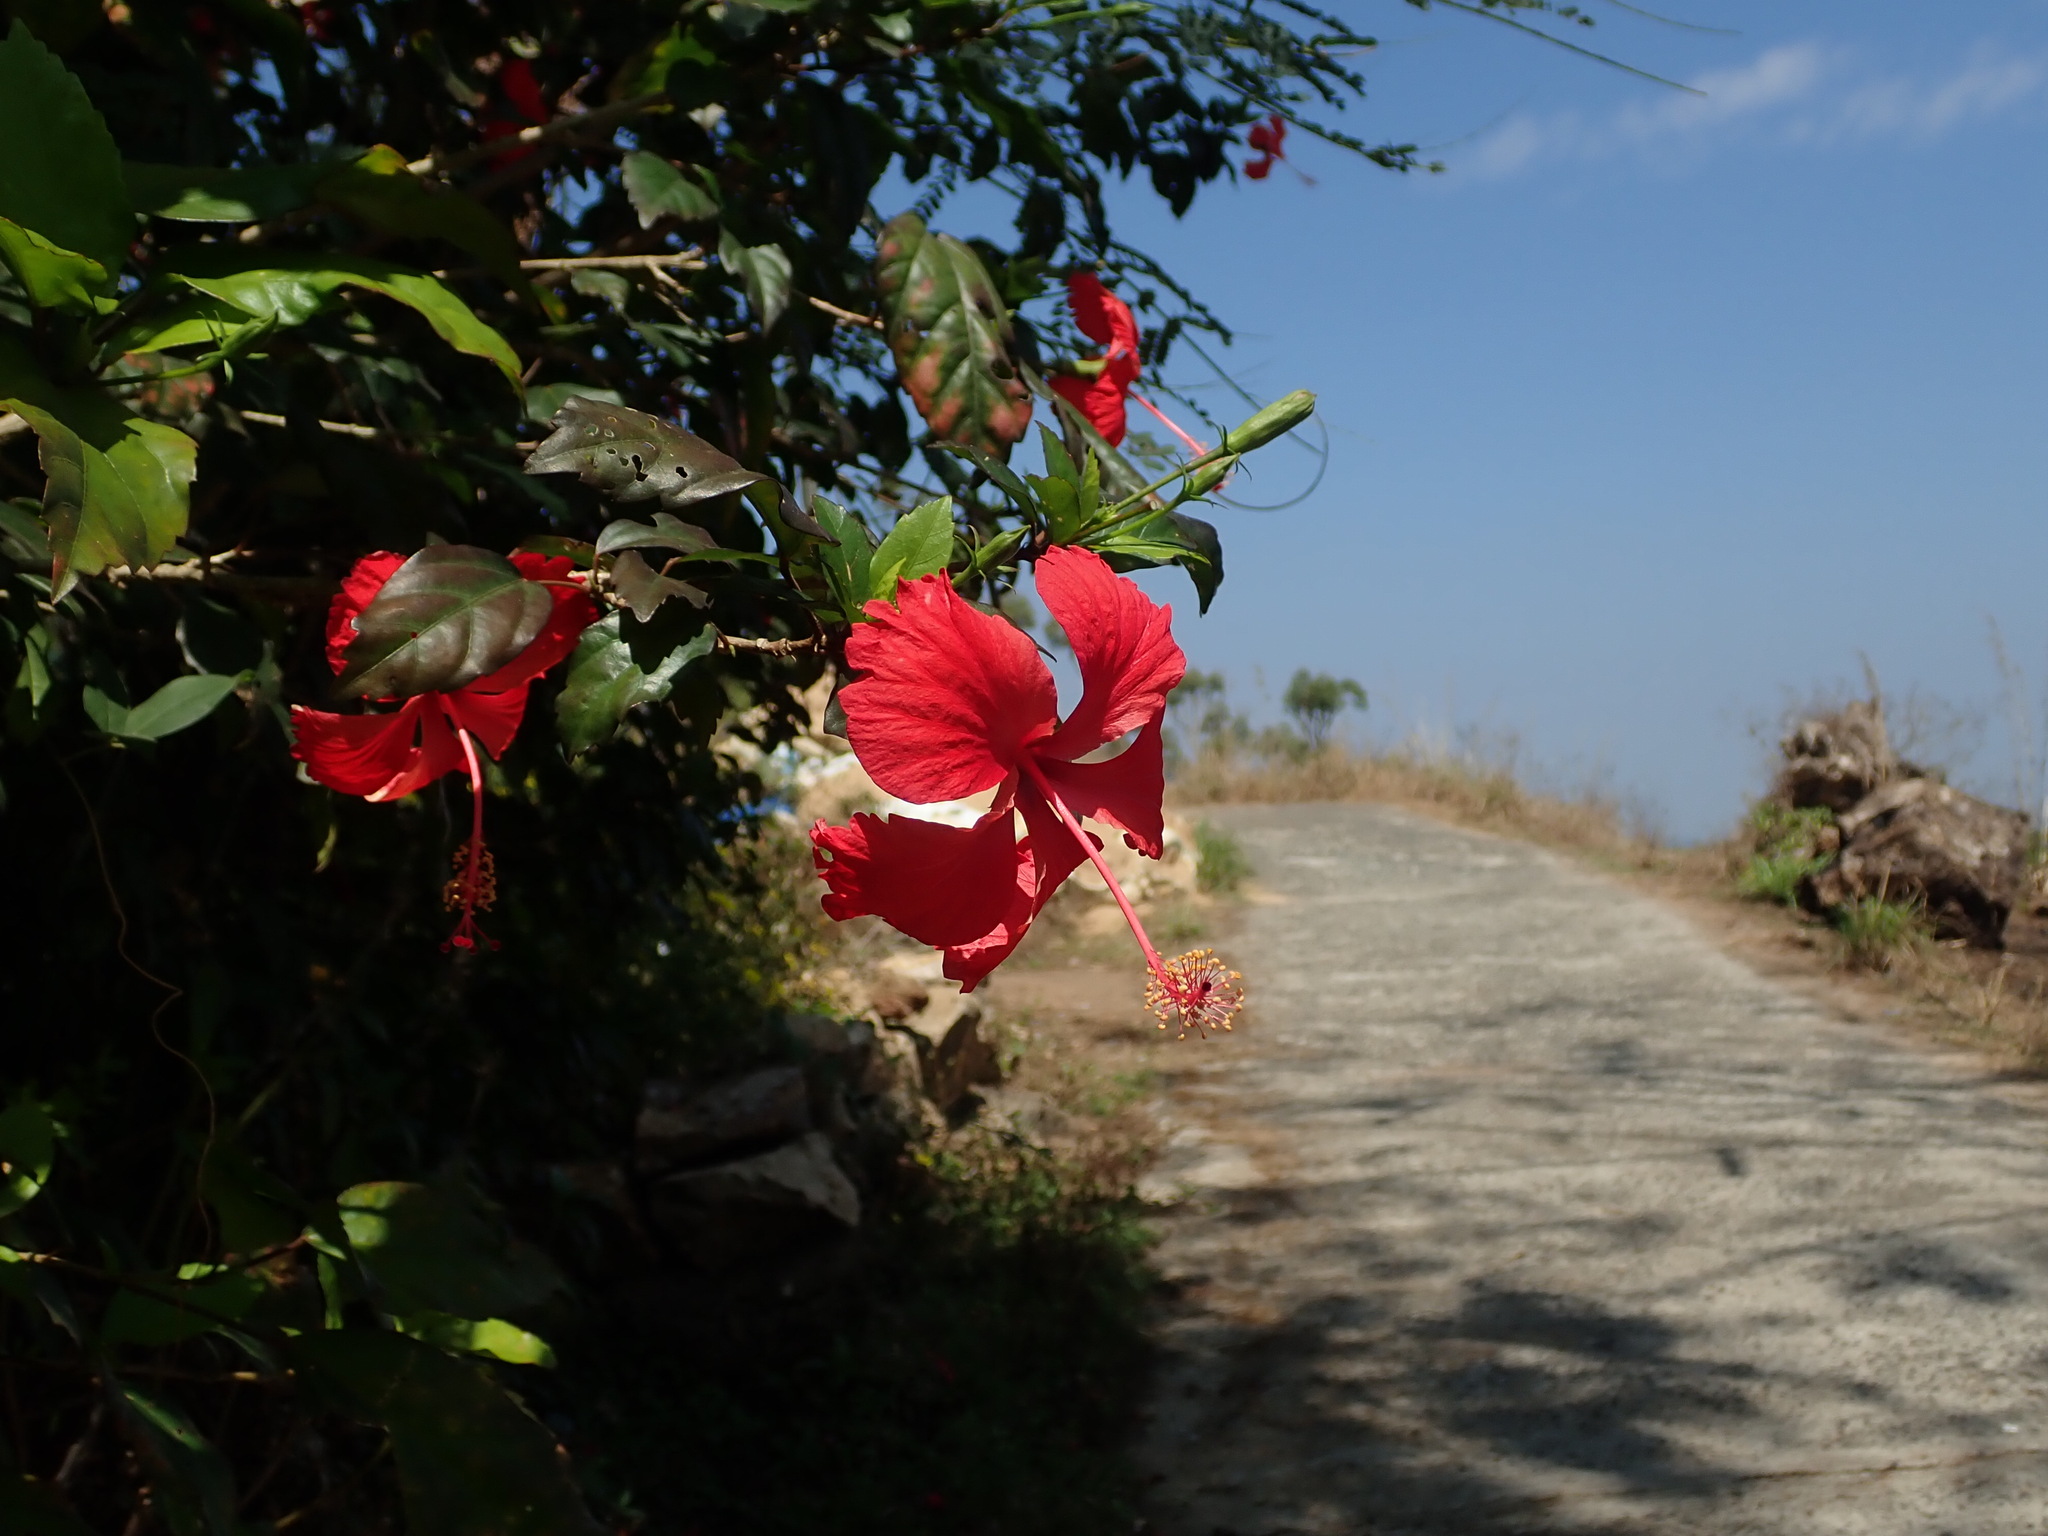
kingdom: Plantae
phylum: Tracheophyta
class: Magnoliopsida
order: Malvales
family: Malvaceae
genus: Hibiscus
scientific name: Hibiscus archeri
